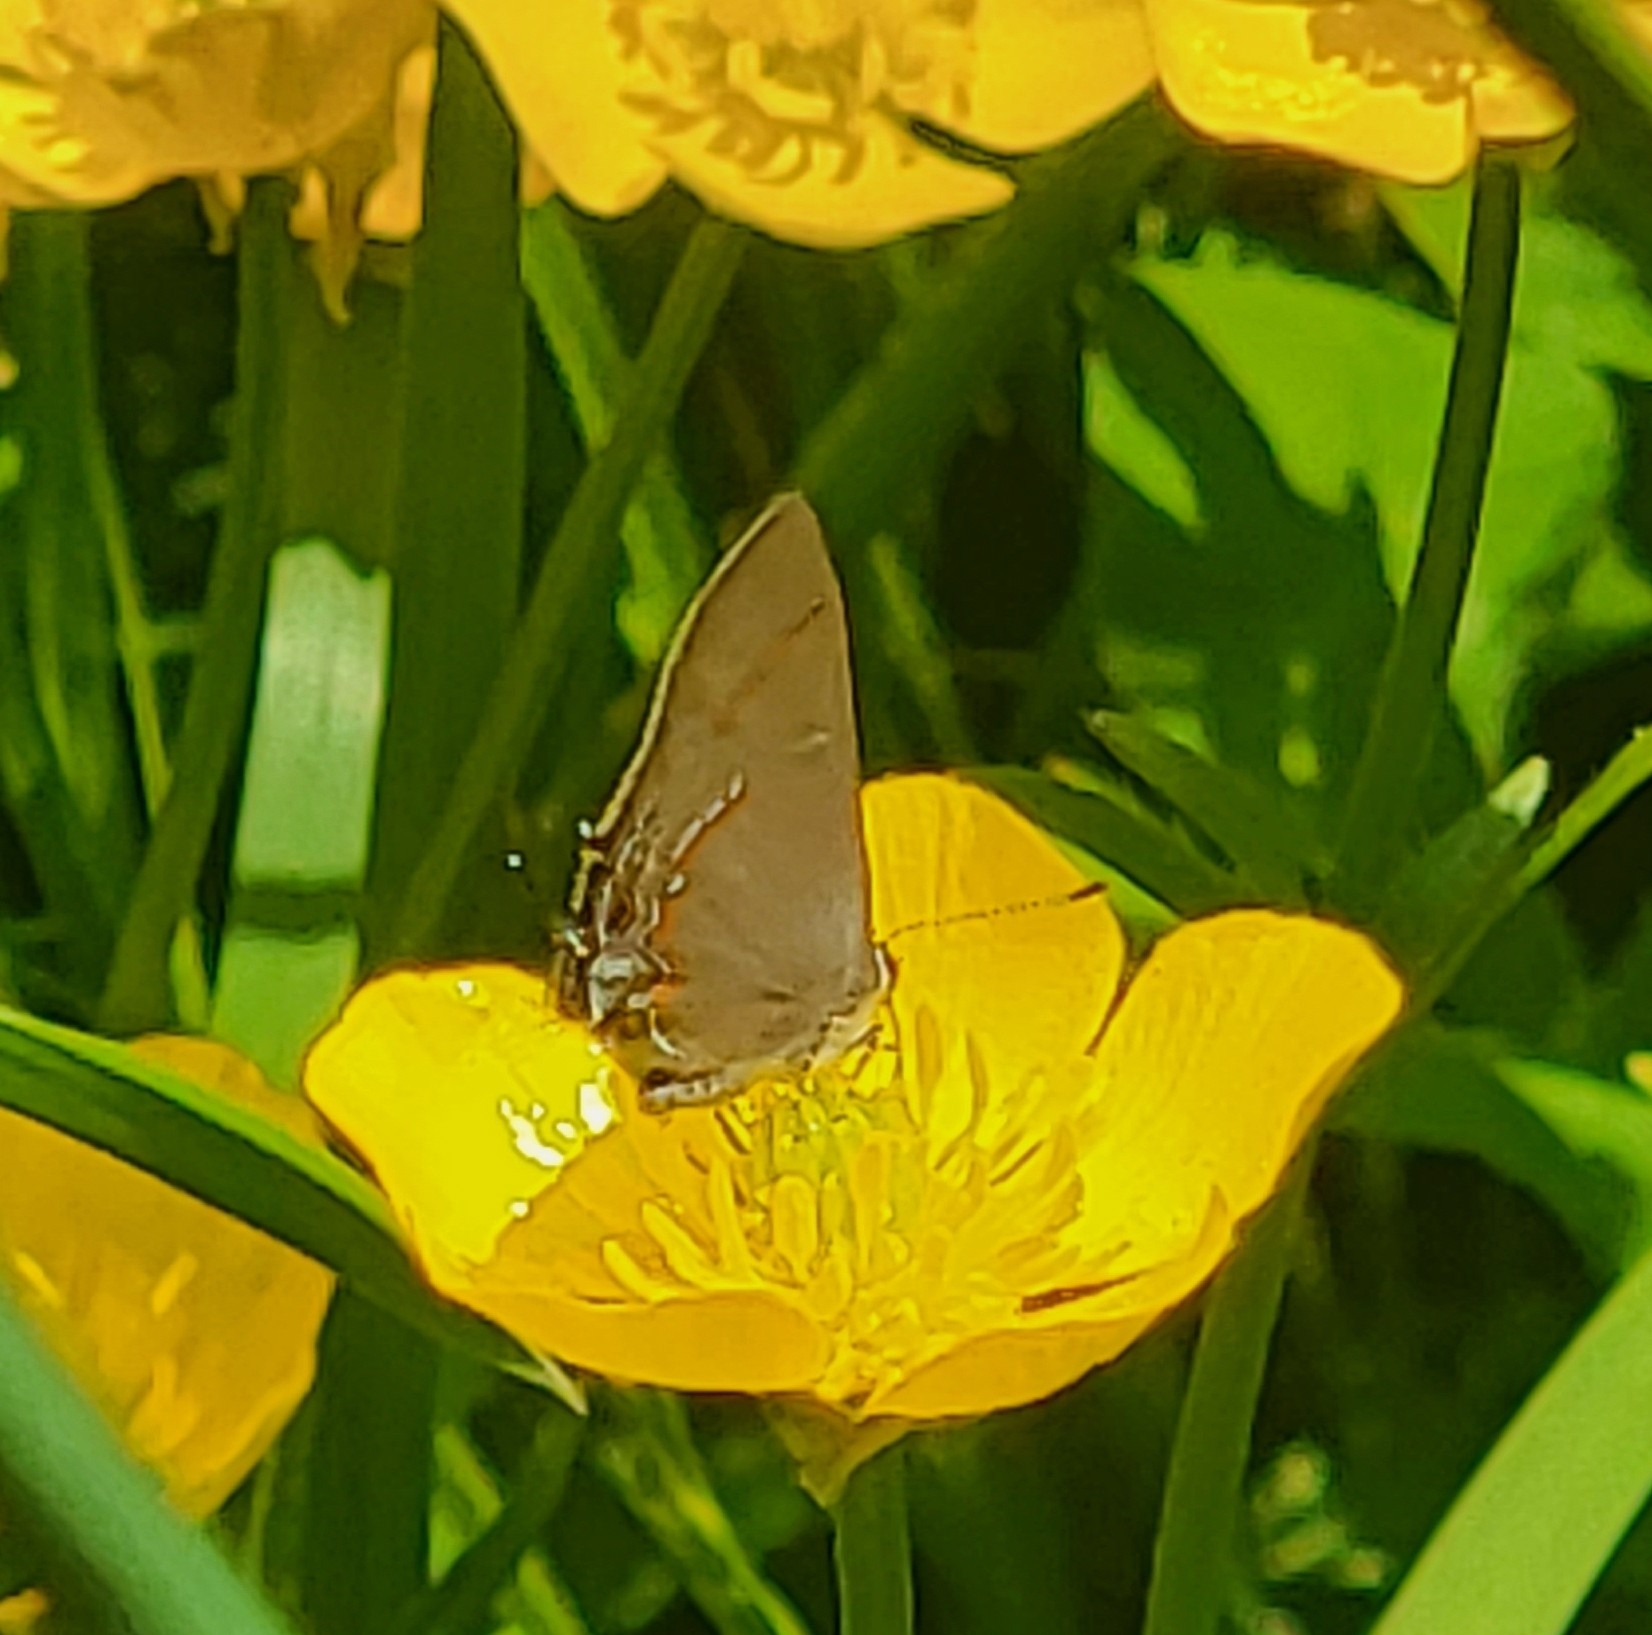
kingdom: Animalia
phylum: Arthropoda
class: Insecta
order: Lepidoptera
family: Lycaenidae
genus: Calycopis
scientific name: Calycopis cecrops
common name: Red-banded hairstreak
